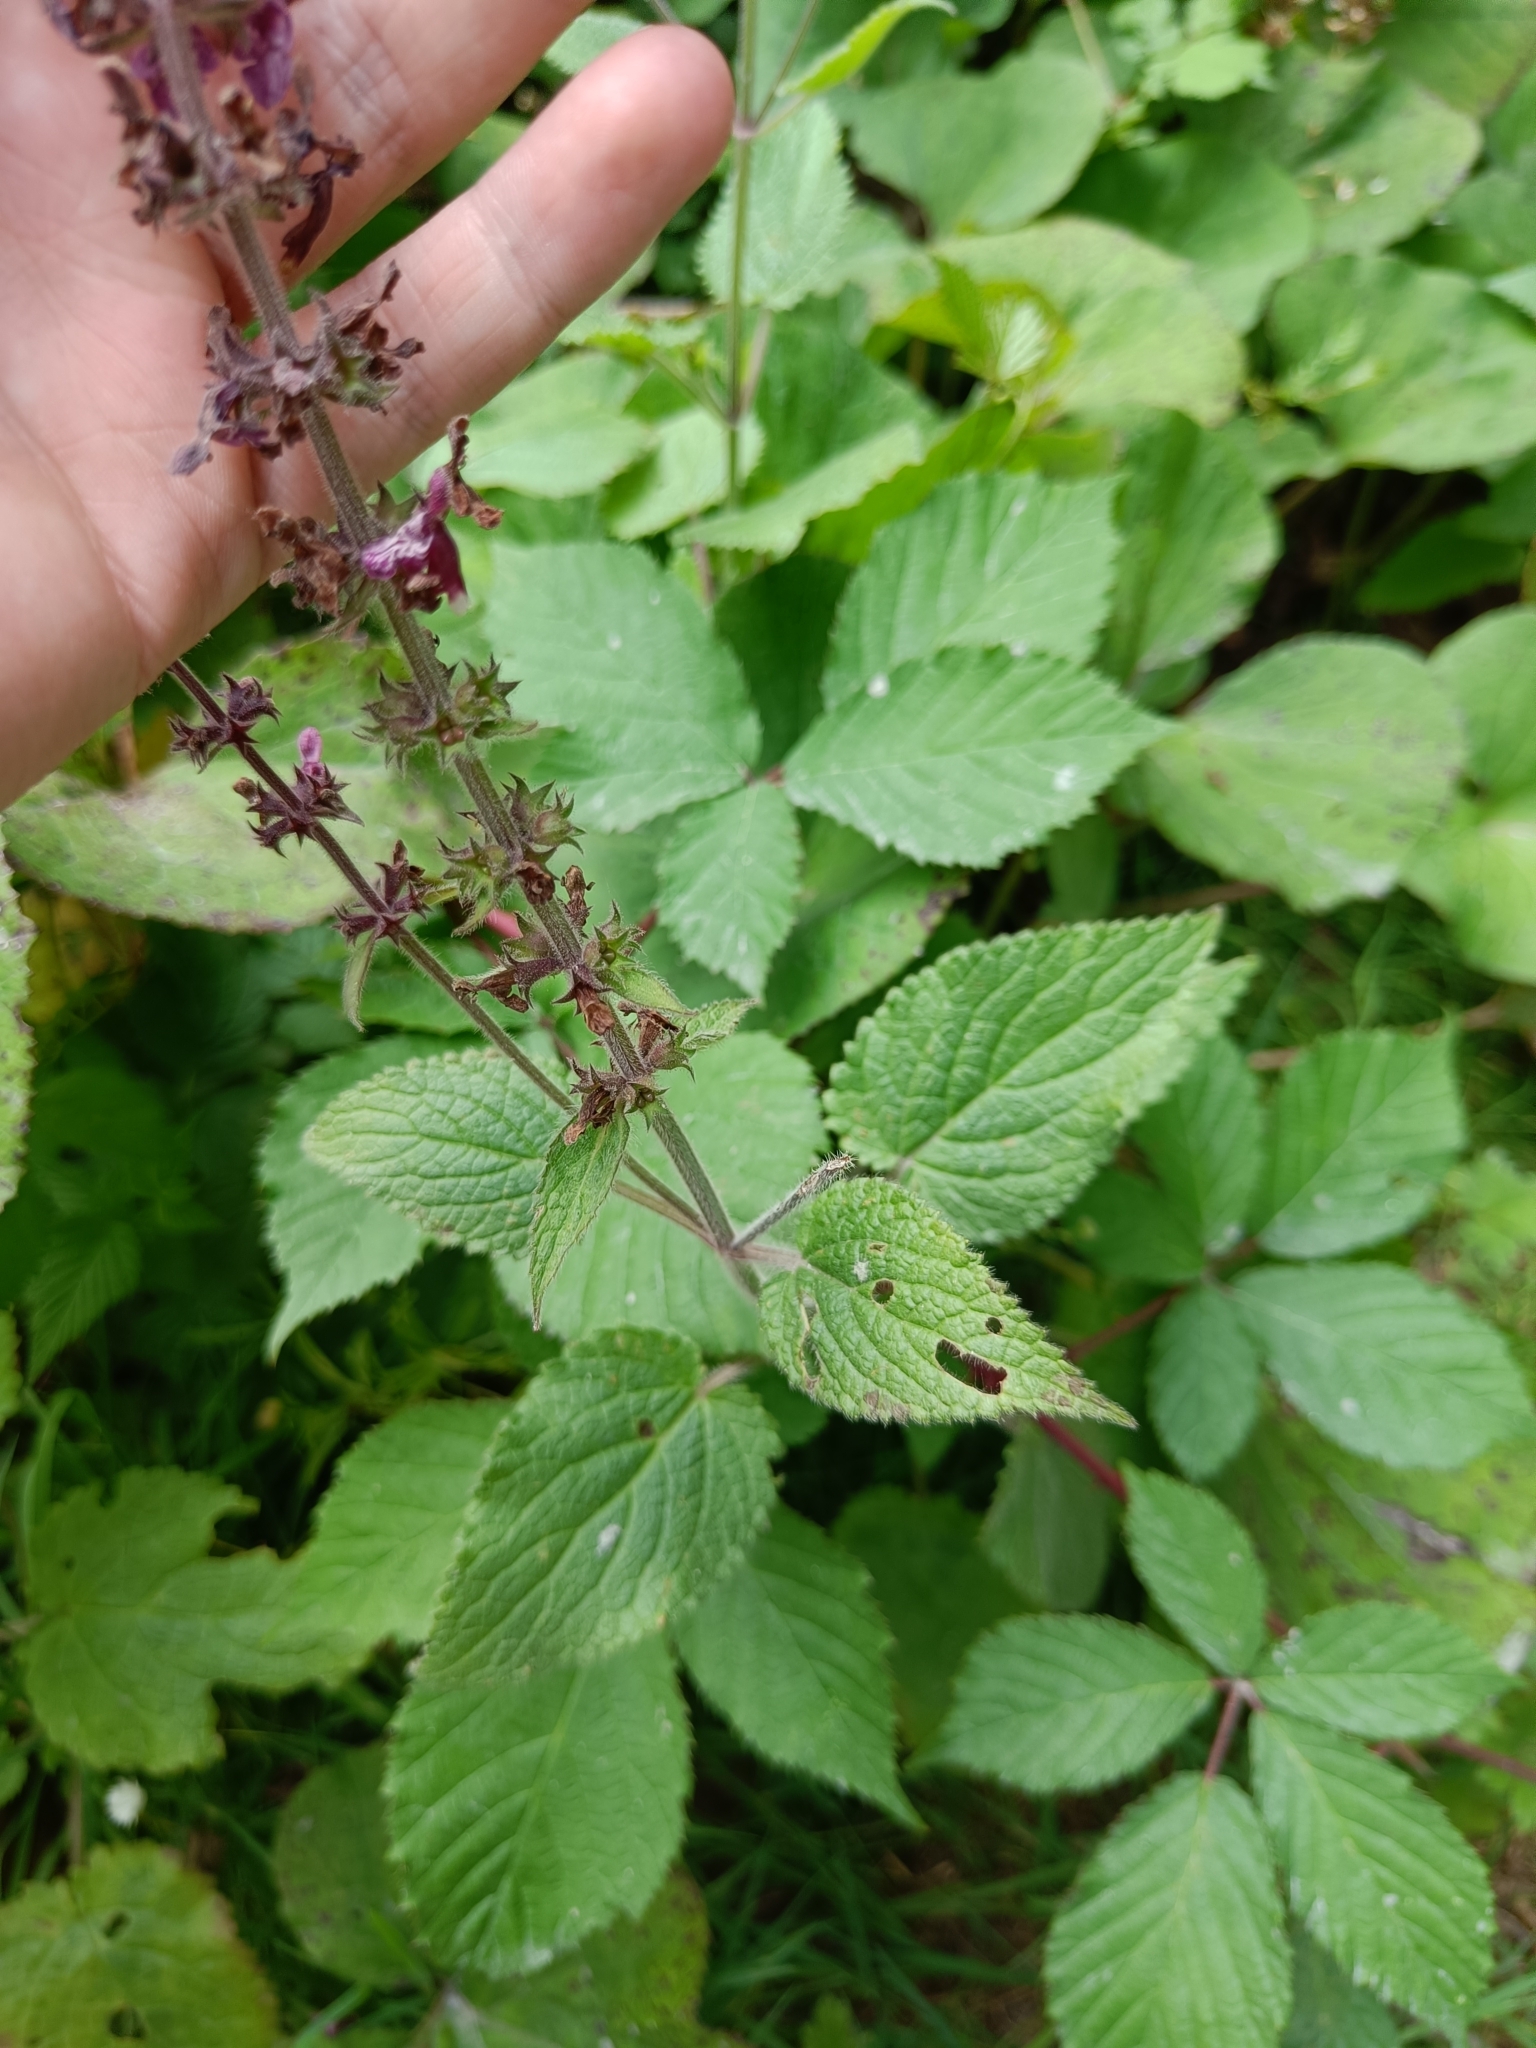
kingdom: Plantae
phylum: Tracheophyta
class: Magnoliopsida
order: Lamiales
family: Lamiaceae
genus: Stachys
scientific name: Stachys sylvatica
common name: Hedge woundwort
